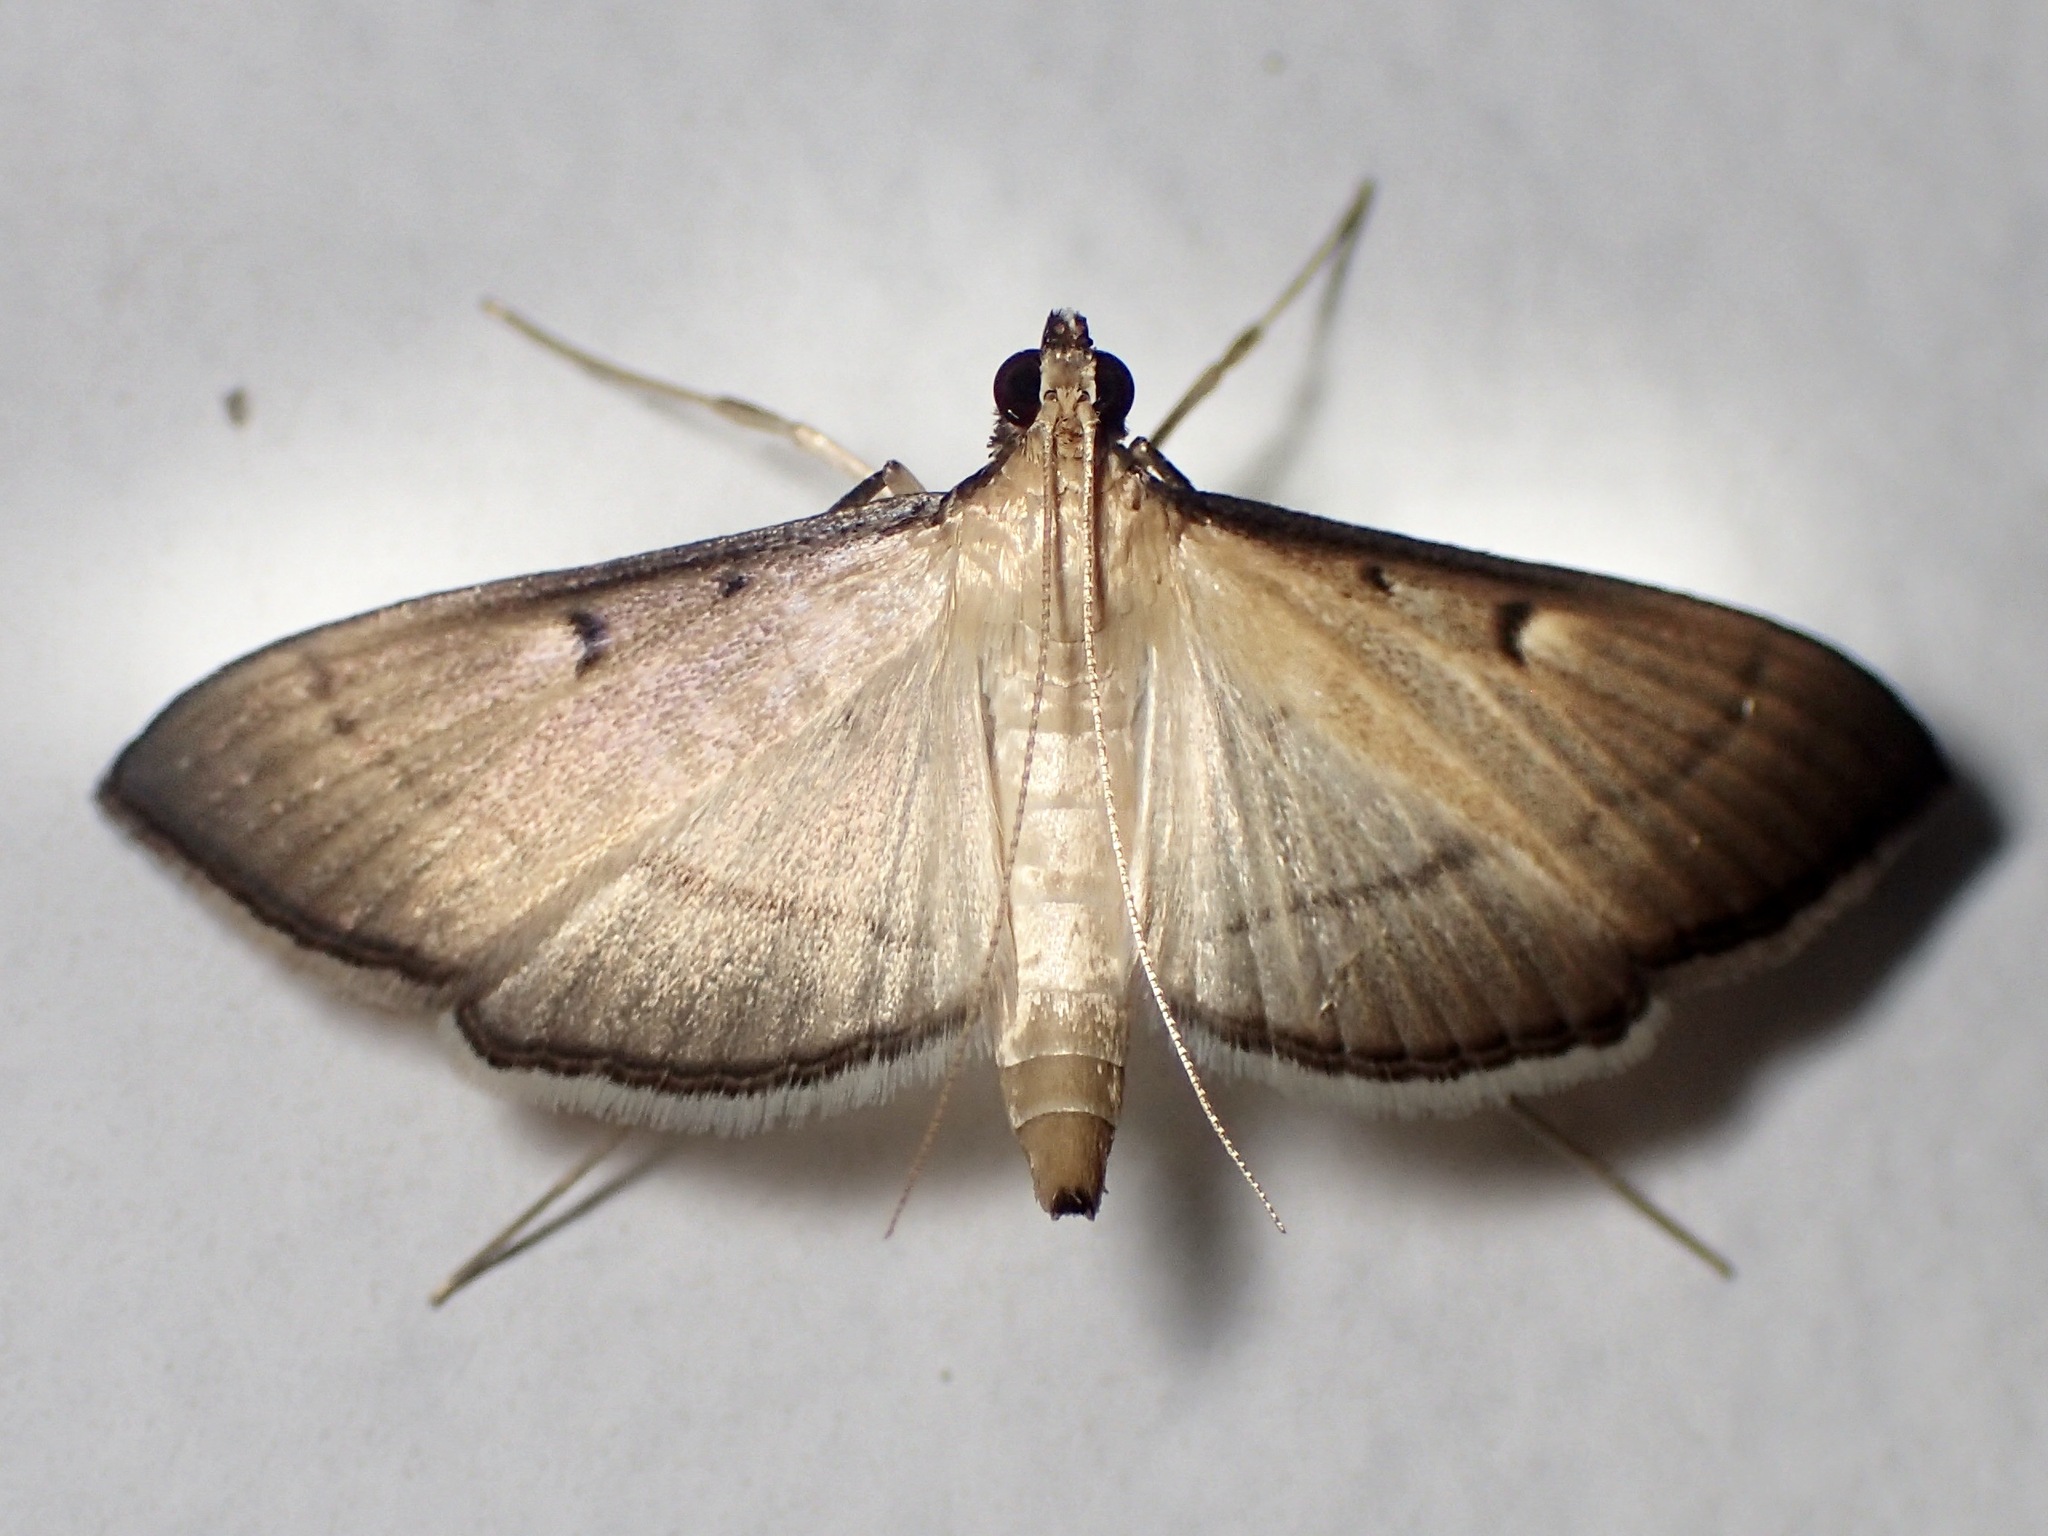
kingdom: Animalia
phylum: Arthropoda
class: Insecta
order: Lepidoptera
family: Crambidae
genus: Bradina
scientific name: Bradina admixtalis
